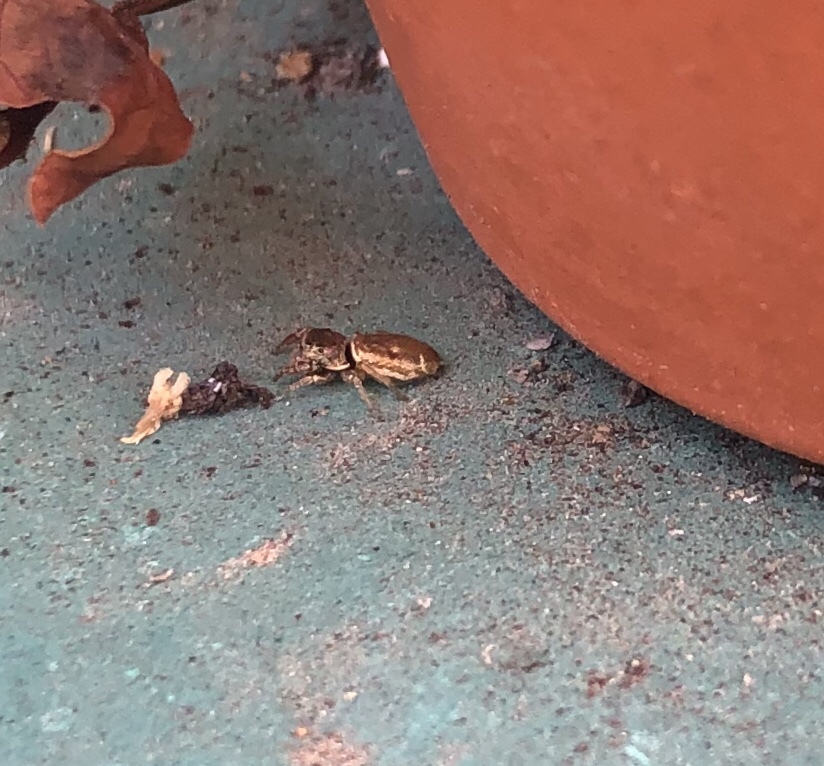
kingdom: Animalia
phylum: Arthropoda
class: Arachnida
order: Araneae
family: Salticidae
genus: Sassacus
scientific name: Sassacus vitis
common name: Jumping spiders
